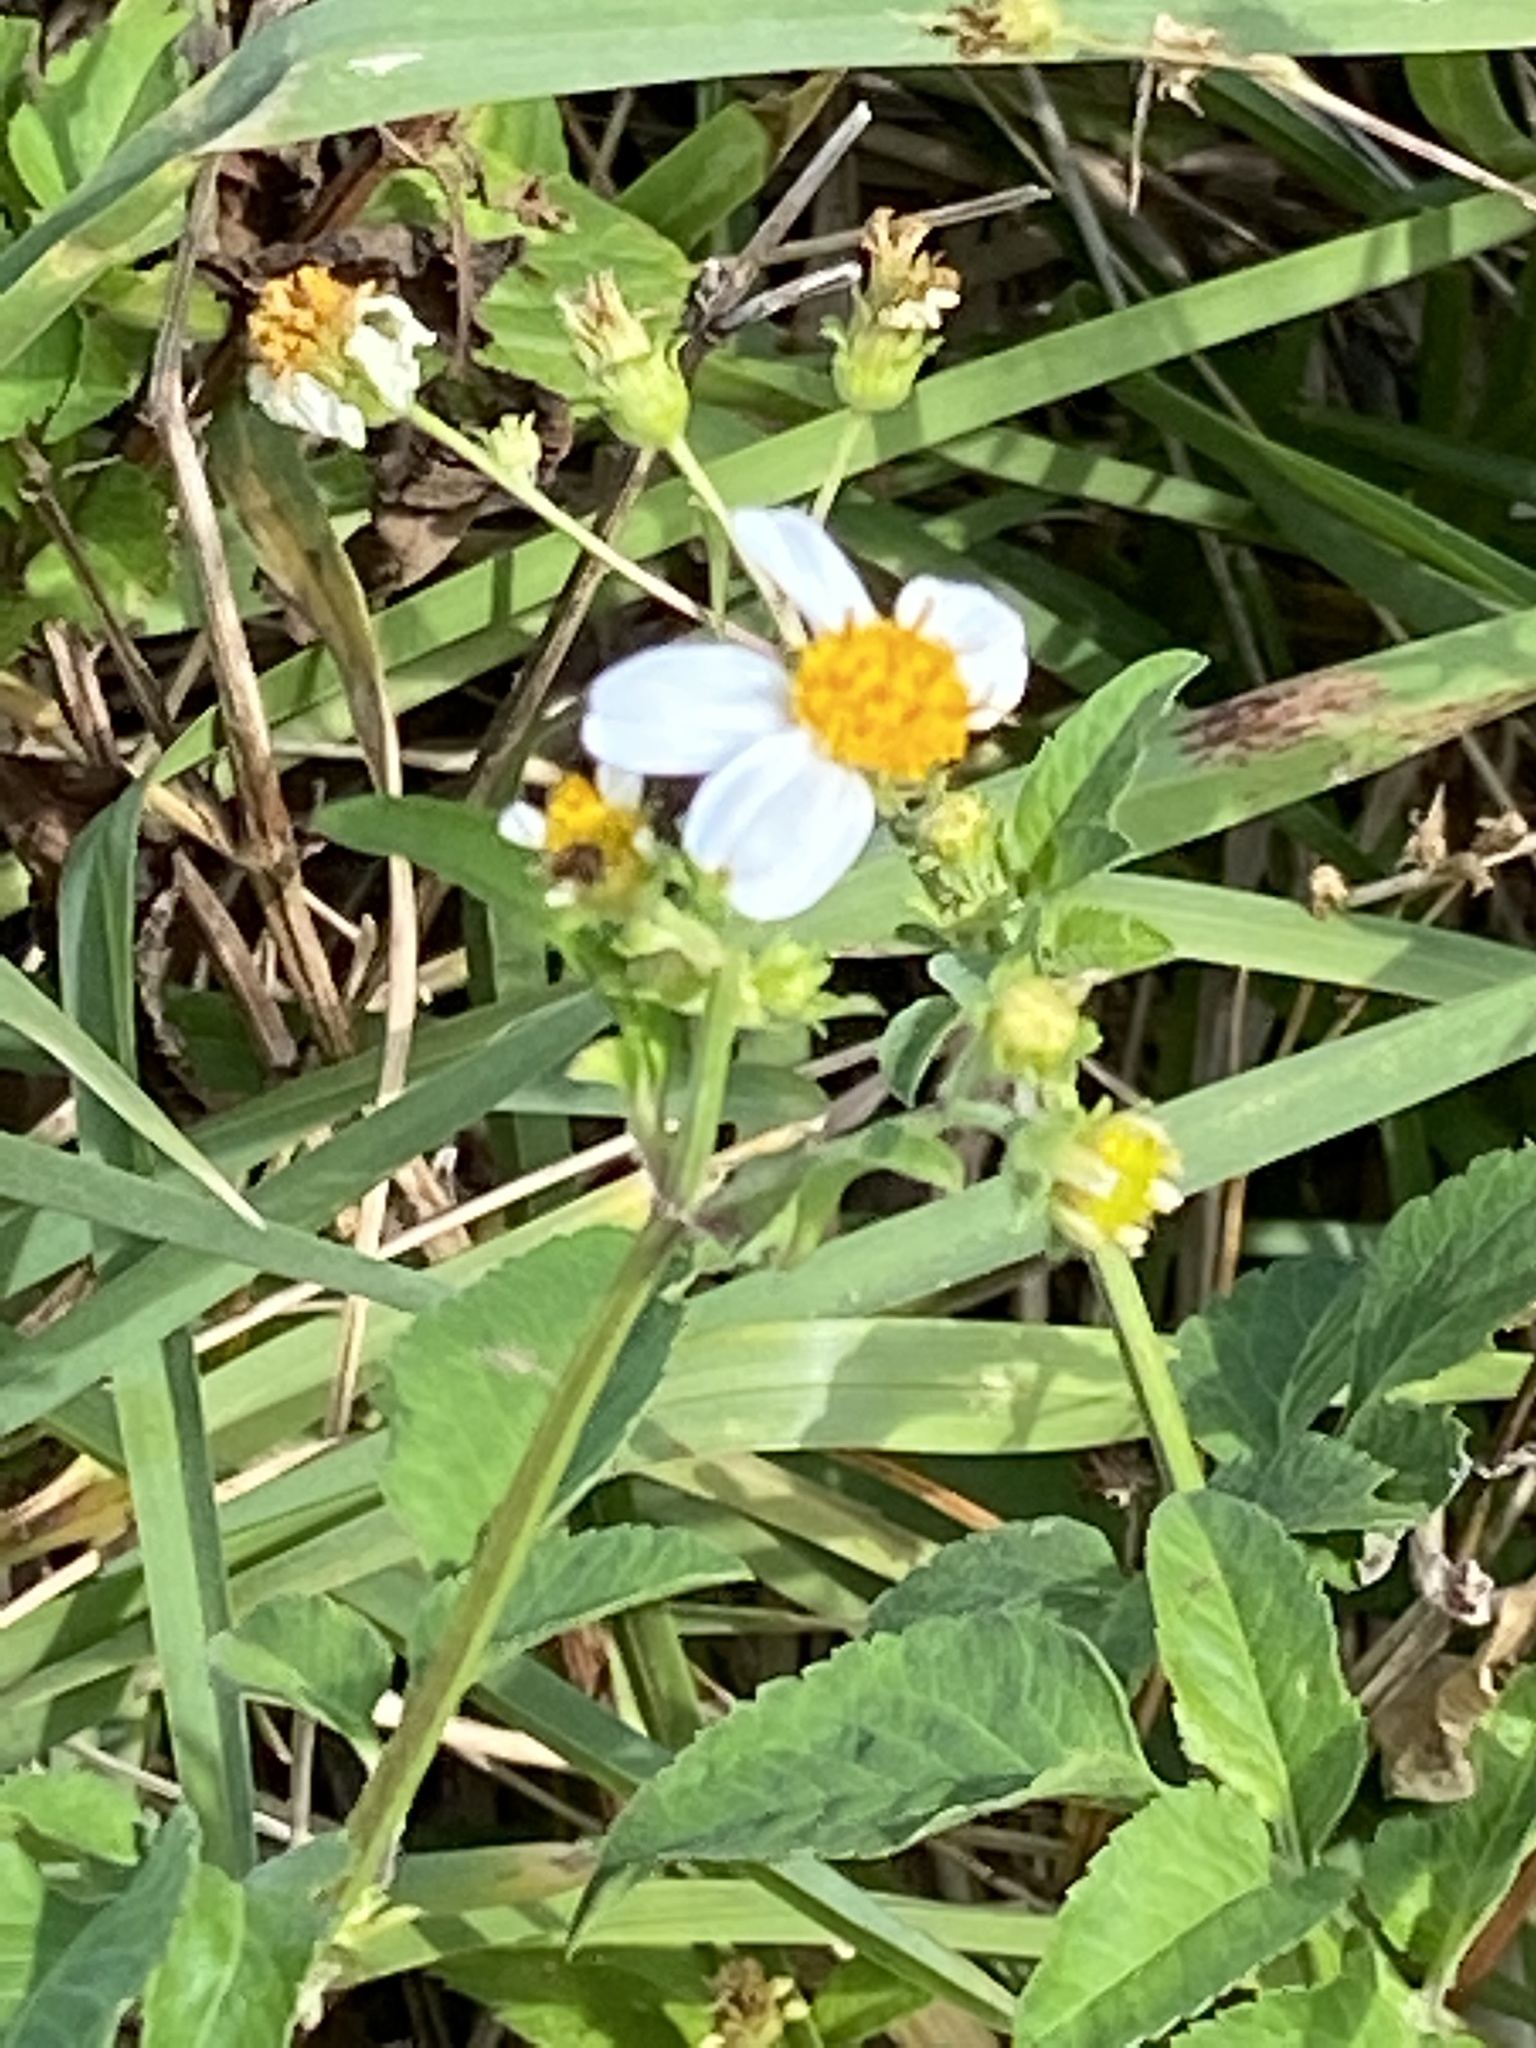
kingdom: Plantae
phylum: Tracheophyta
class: Magnoliopsida
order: Asterales
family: Asteraceae
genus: Bidens
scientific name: Bidens alba
